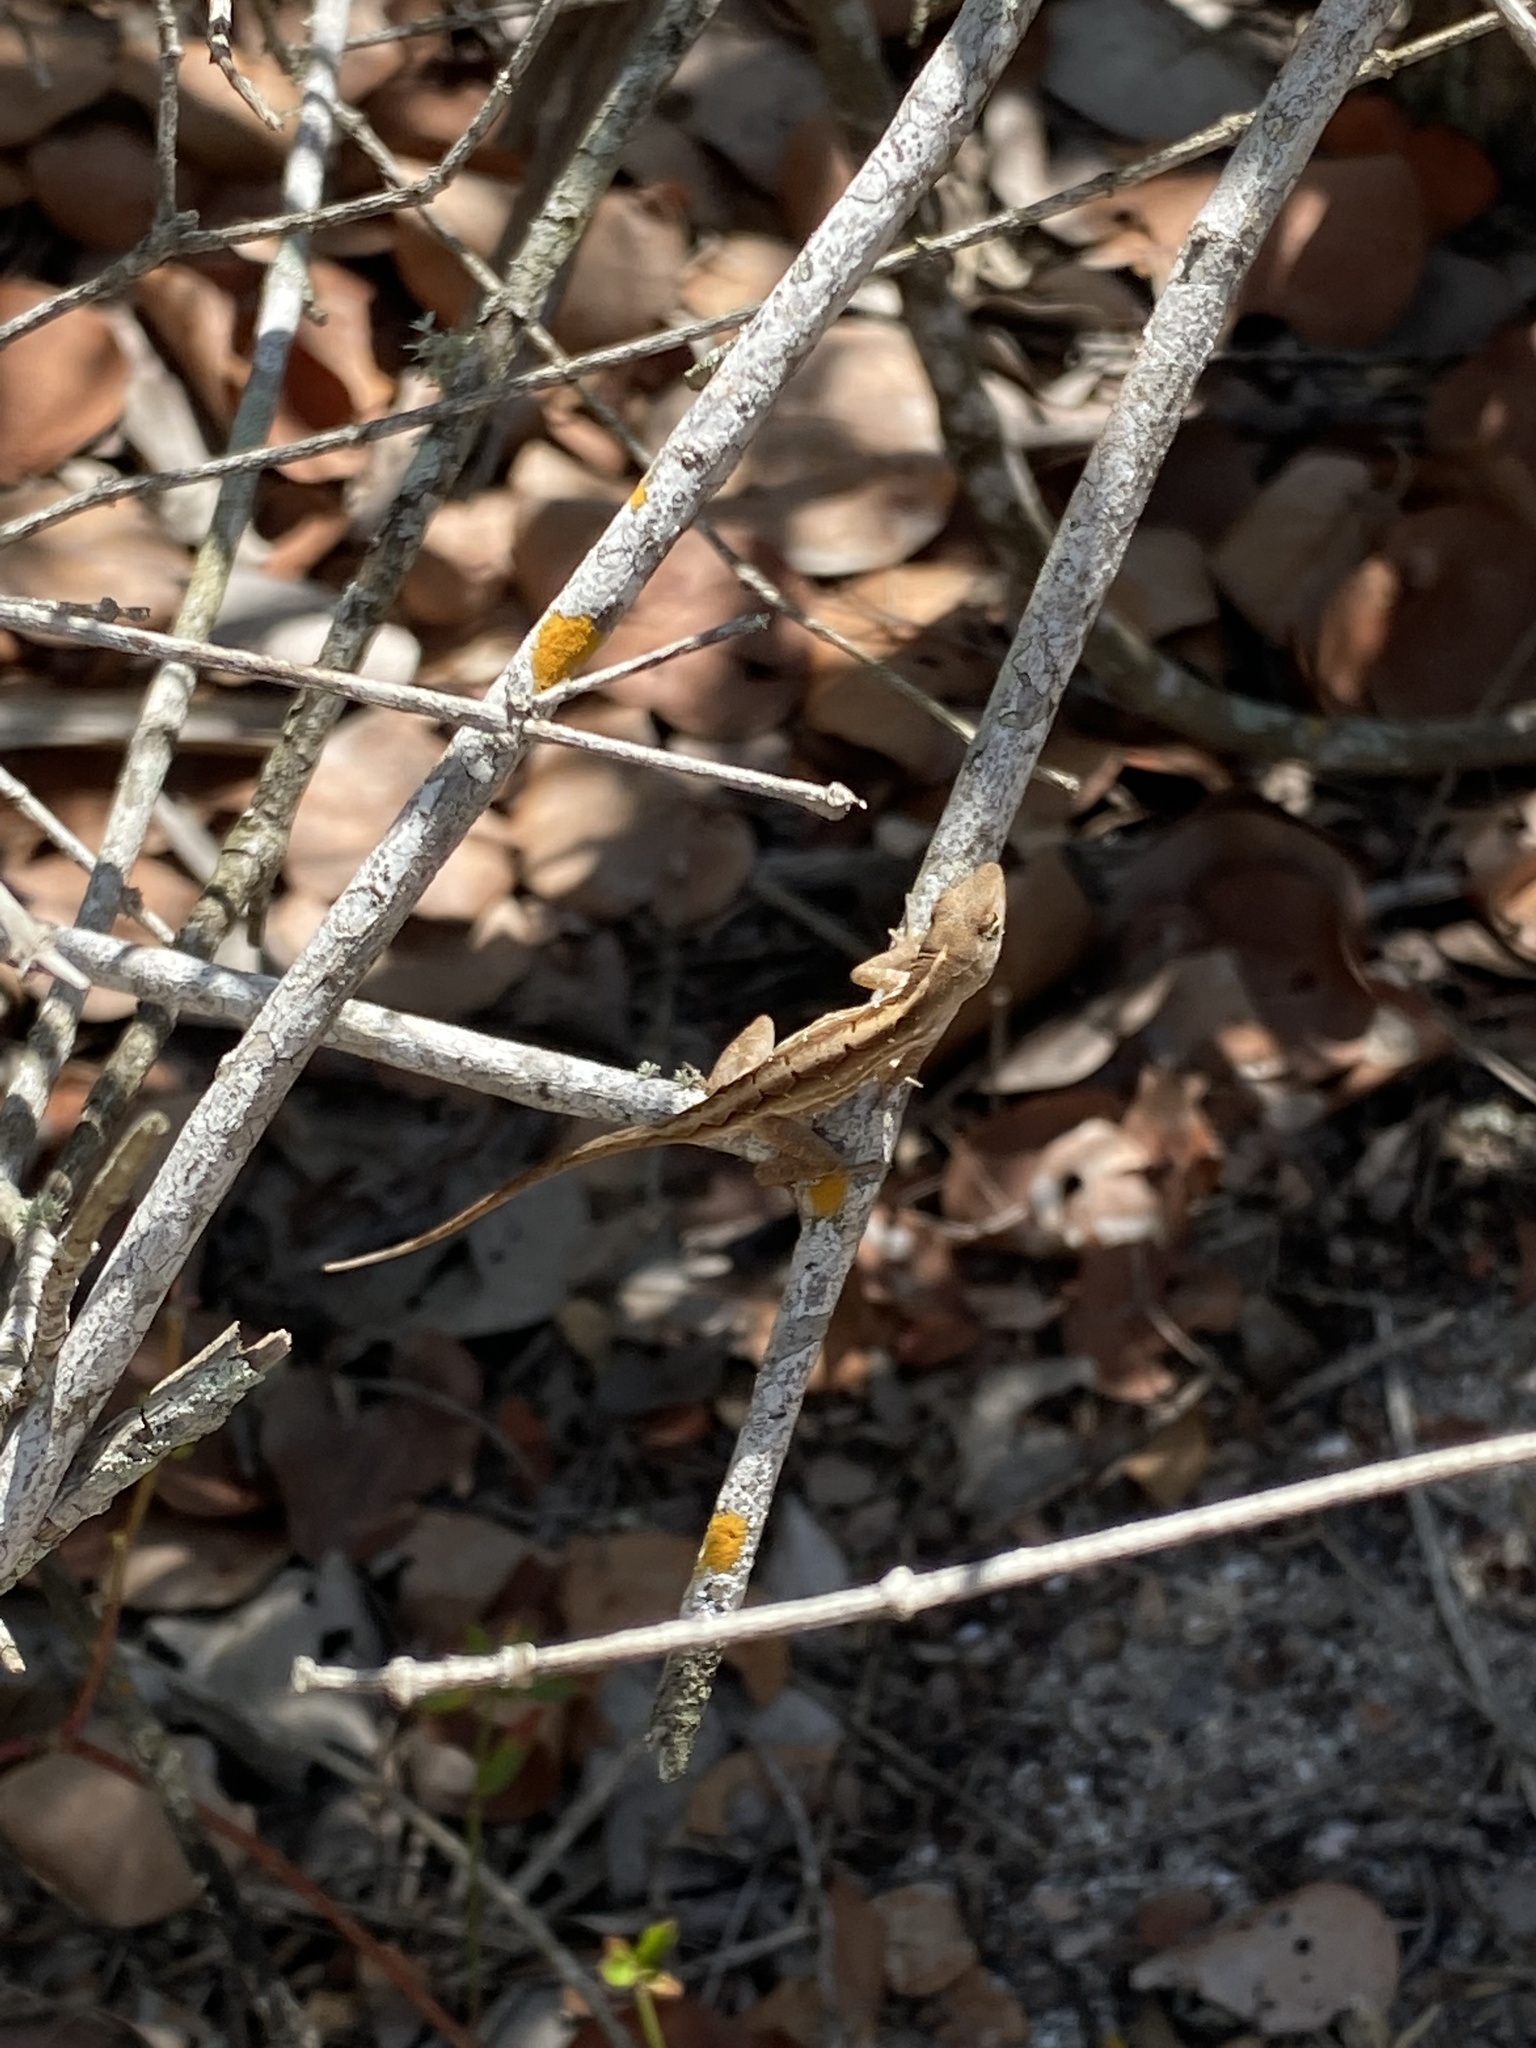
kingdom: Animalia
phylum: Chordata
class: Squamata
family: Dactyloidae
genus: Anolis
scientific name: Anolis sagrei
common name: Brown anole
